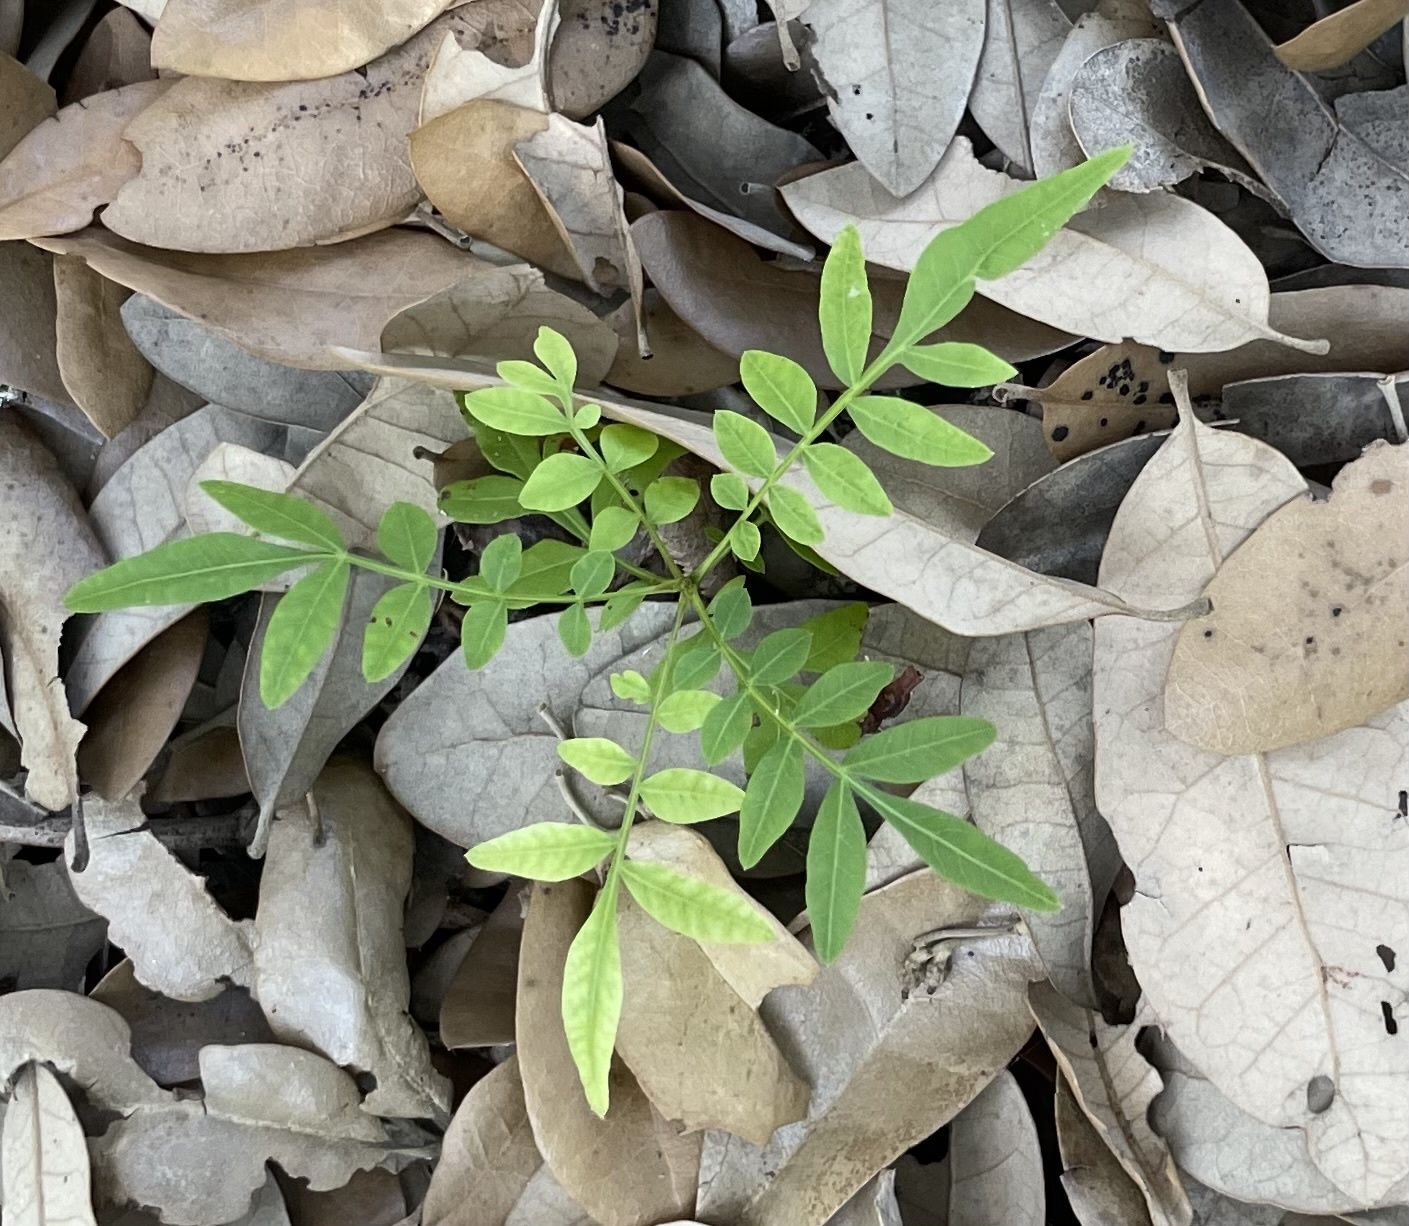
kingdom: Plantae
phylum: Tracheophyta
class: Magnoliopsida
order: Sapindales
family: Anacardiaceae
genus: Pistacia
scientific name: Pistacia chinensis
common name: Chinese pistache
